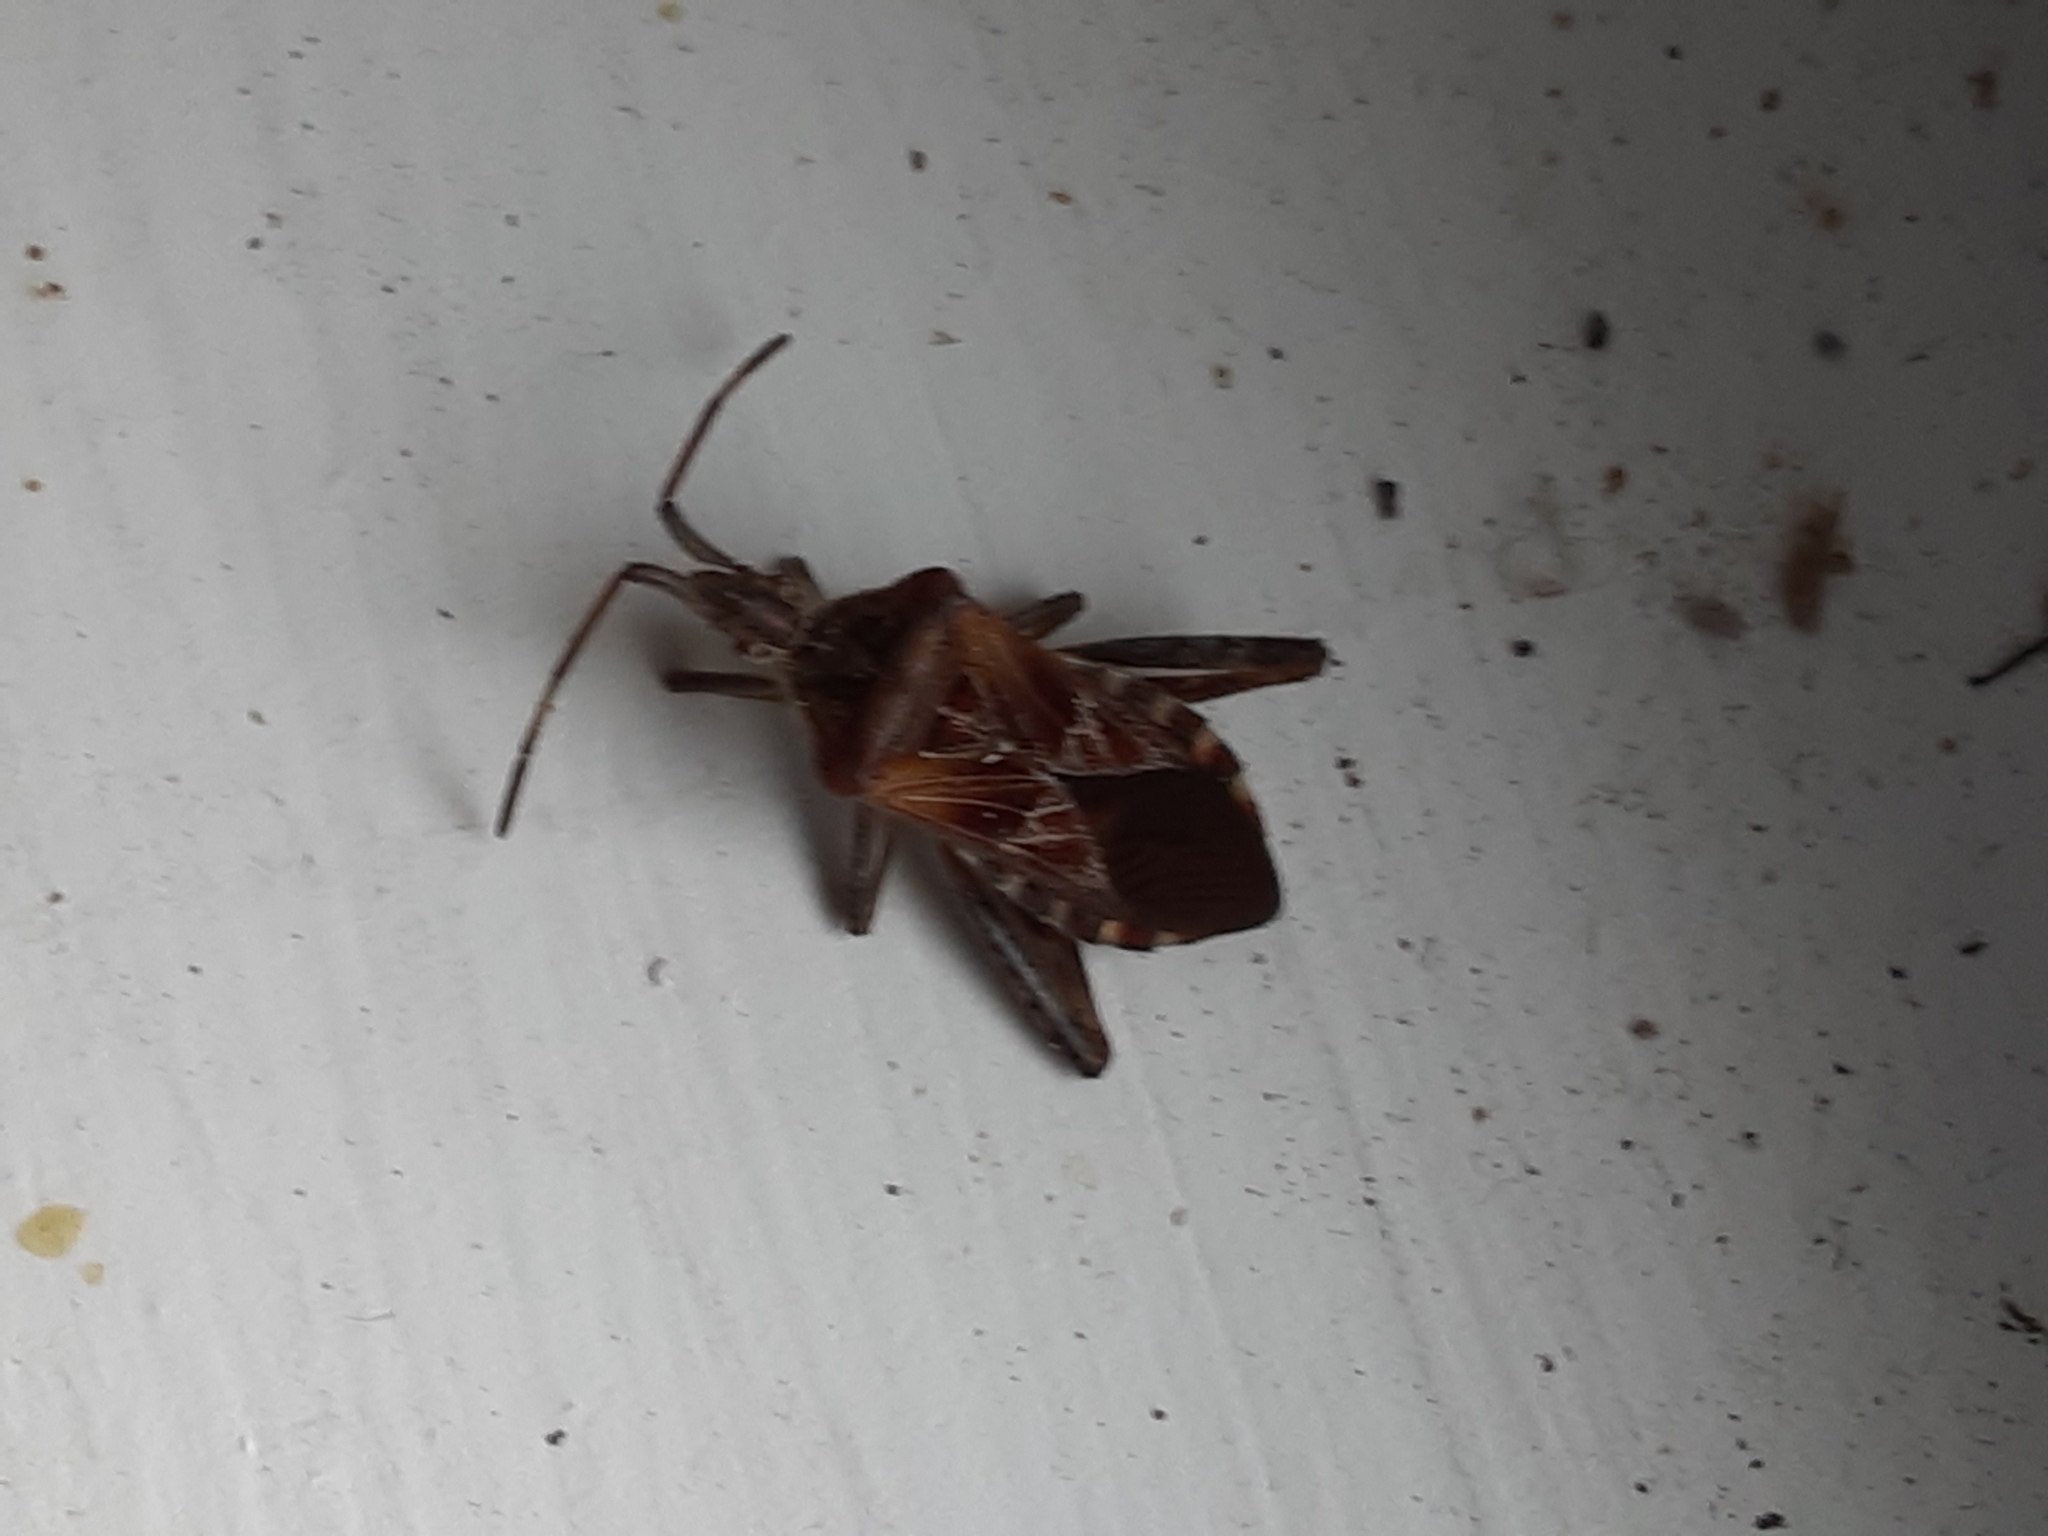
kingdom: Animalia
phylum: Arthropoda
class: Insecta
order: Hemiptera
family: Coreidae
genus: Leptoglossus
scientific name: Leptoglossus occidentalis
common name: Western conifer-seed bug
